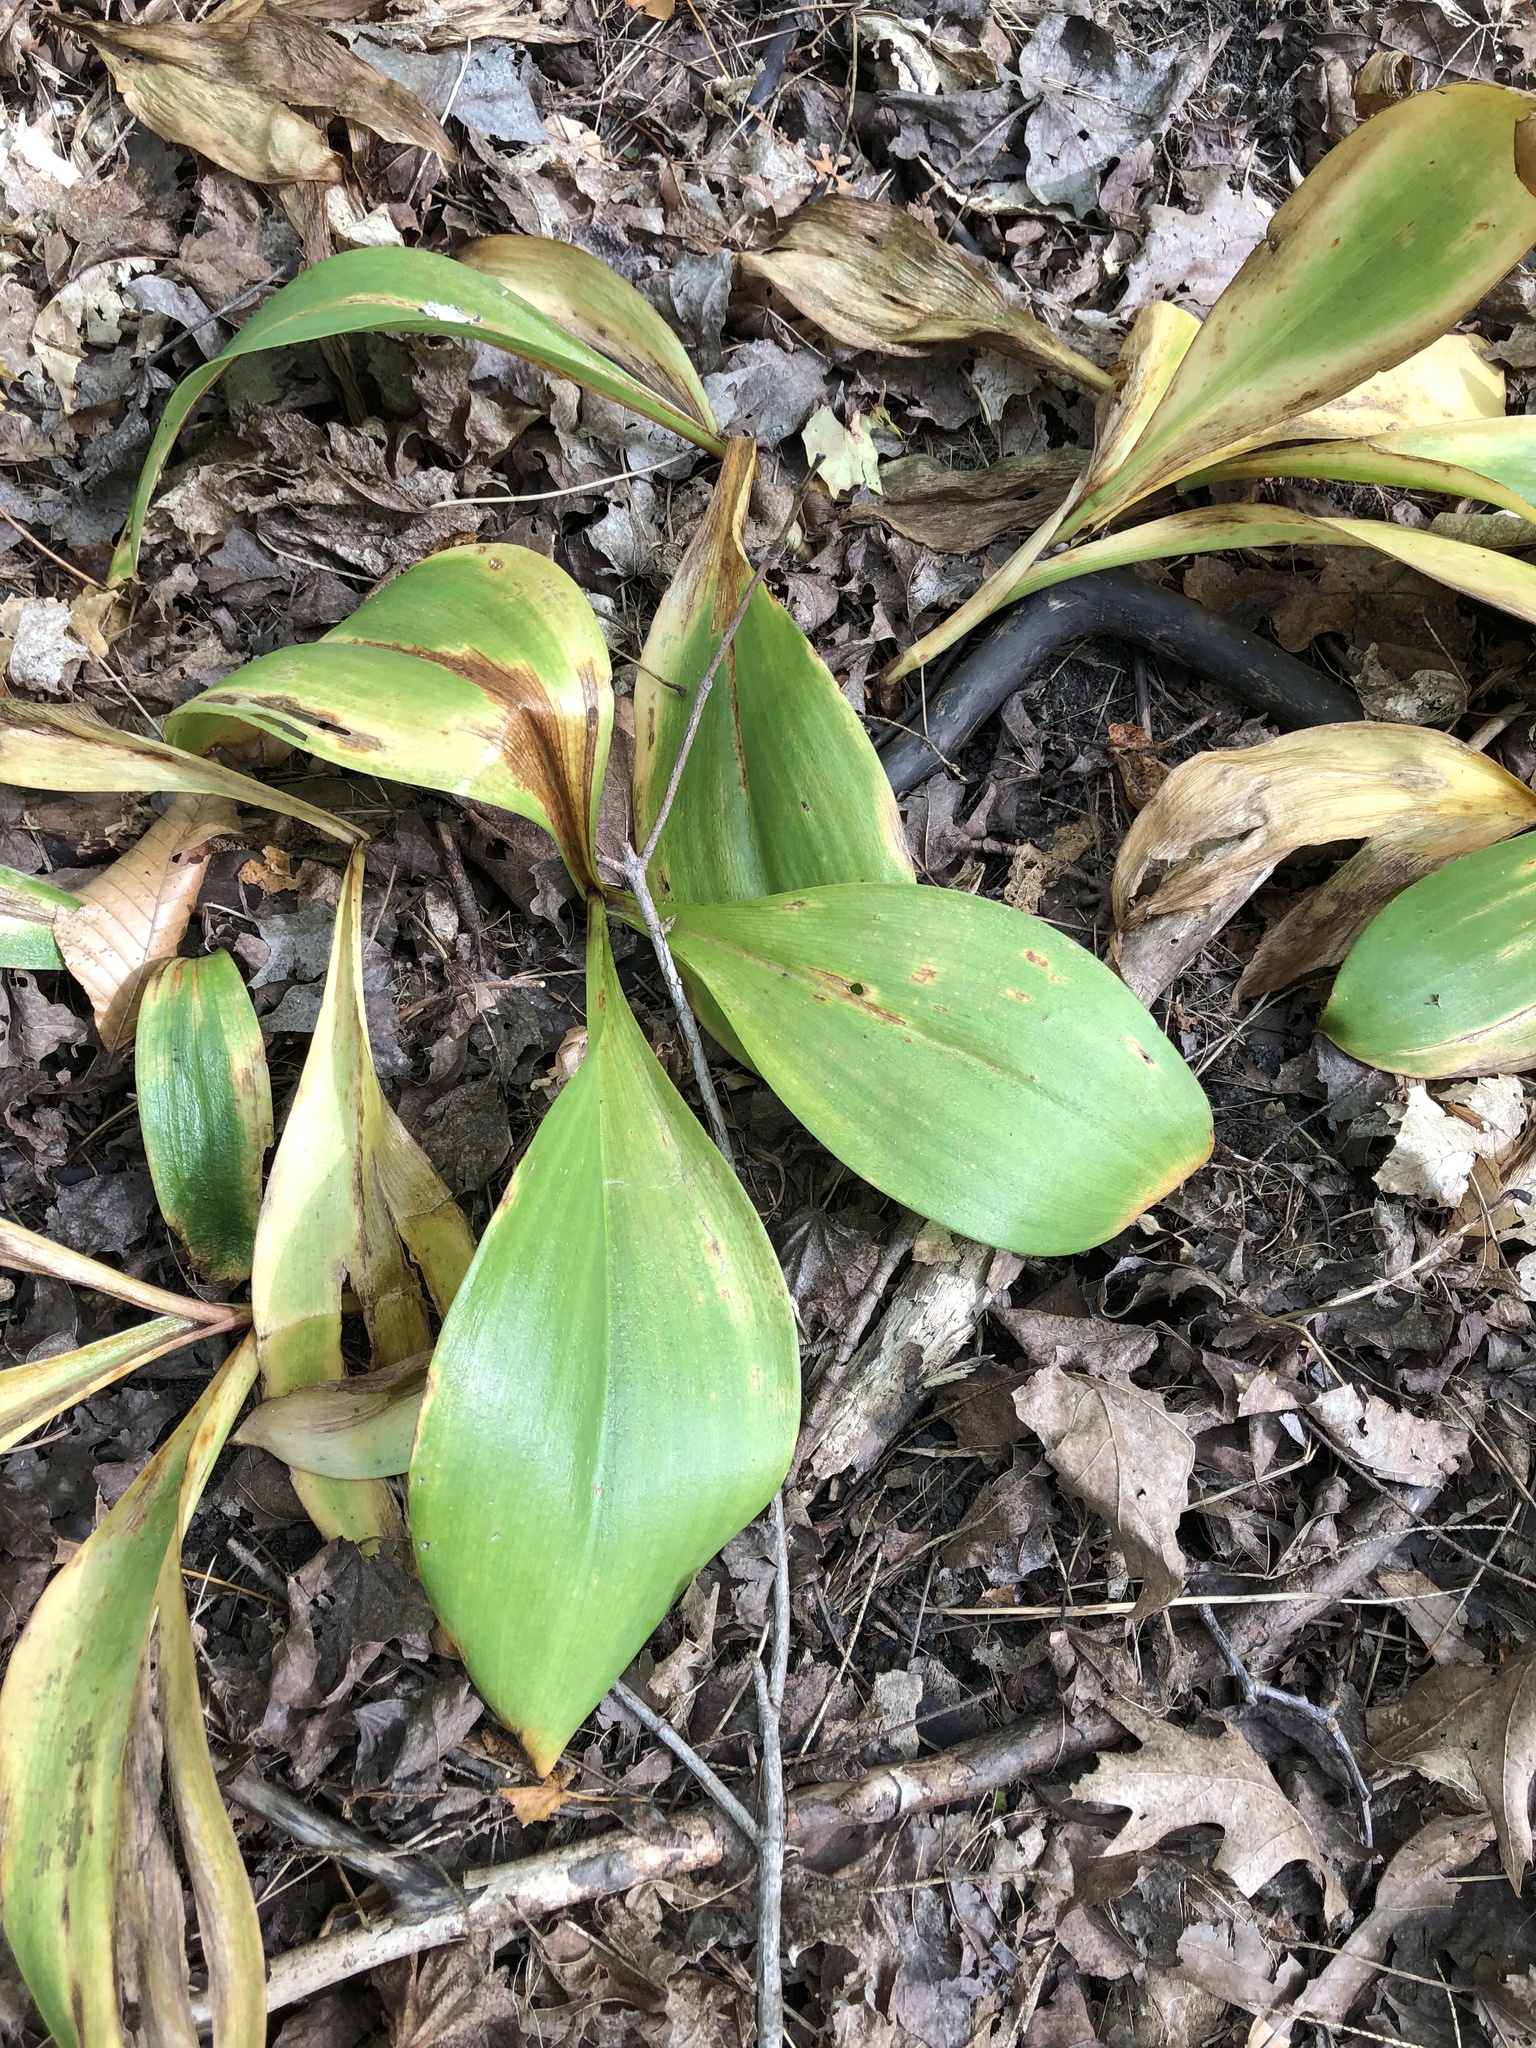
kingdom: Plantae
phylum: Tracheophyta
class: Liliopsida
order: Liliales
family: Liliaceae
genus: Clintonia
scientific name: Clintonia borealis
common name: Yellow clintonia
